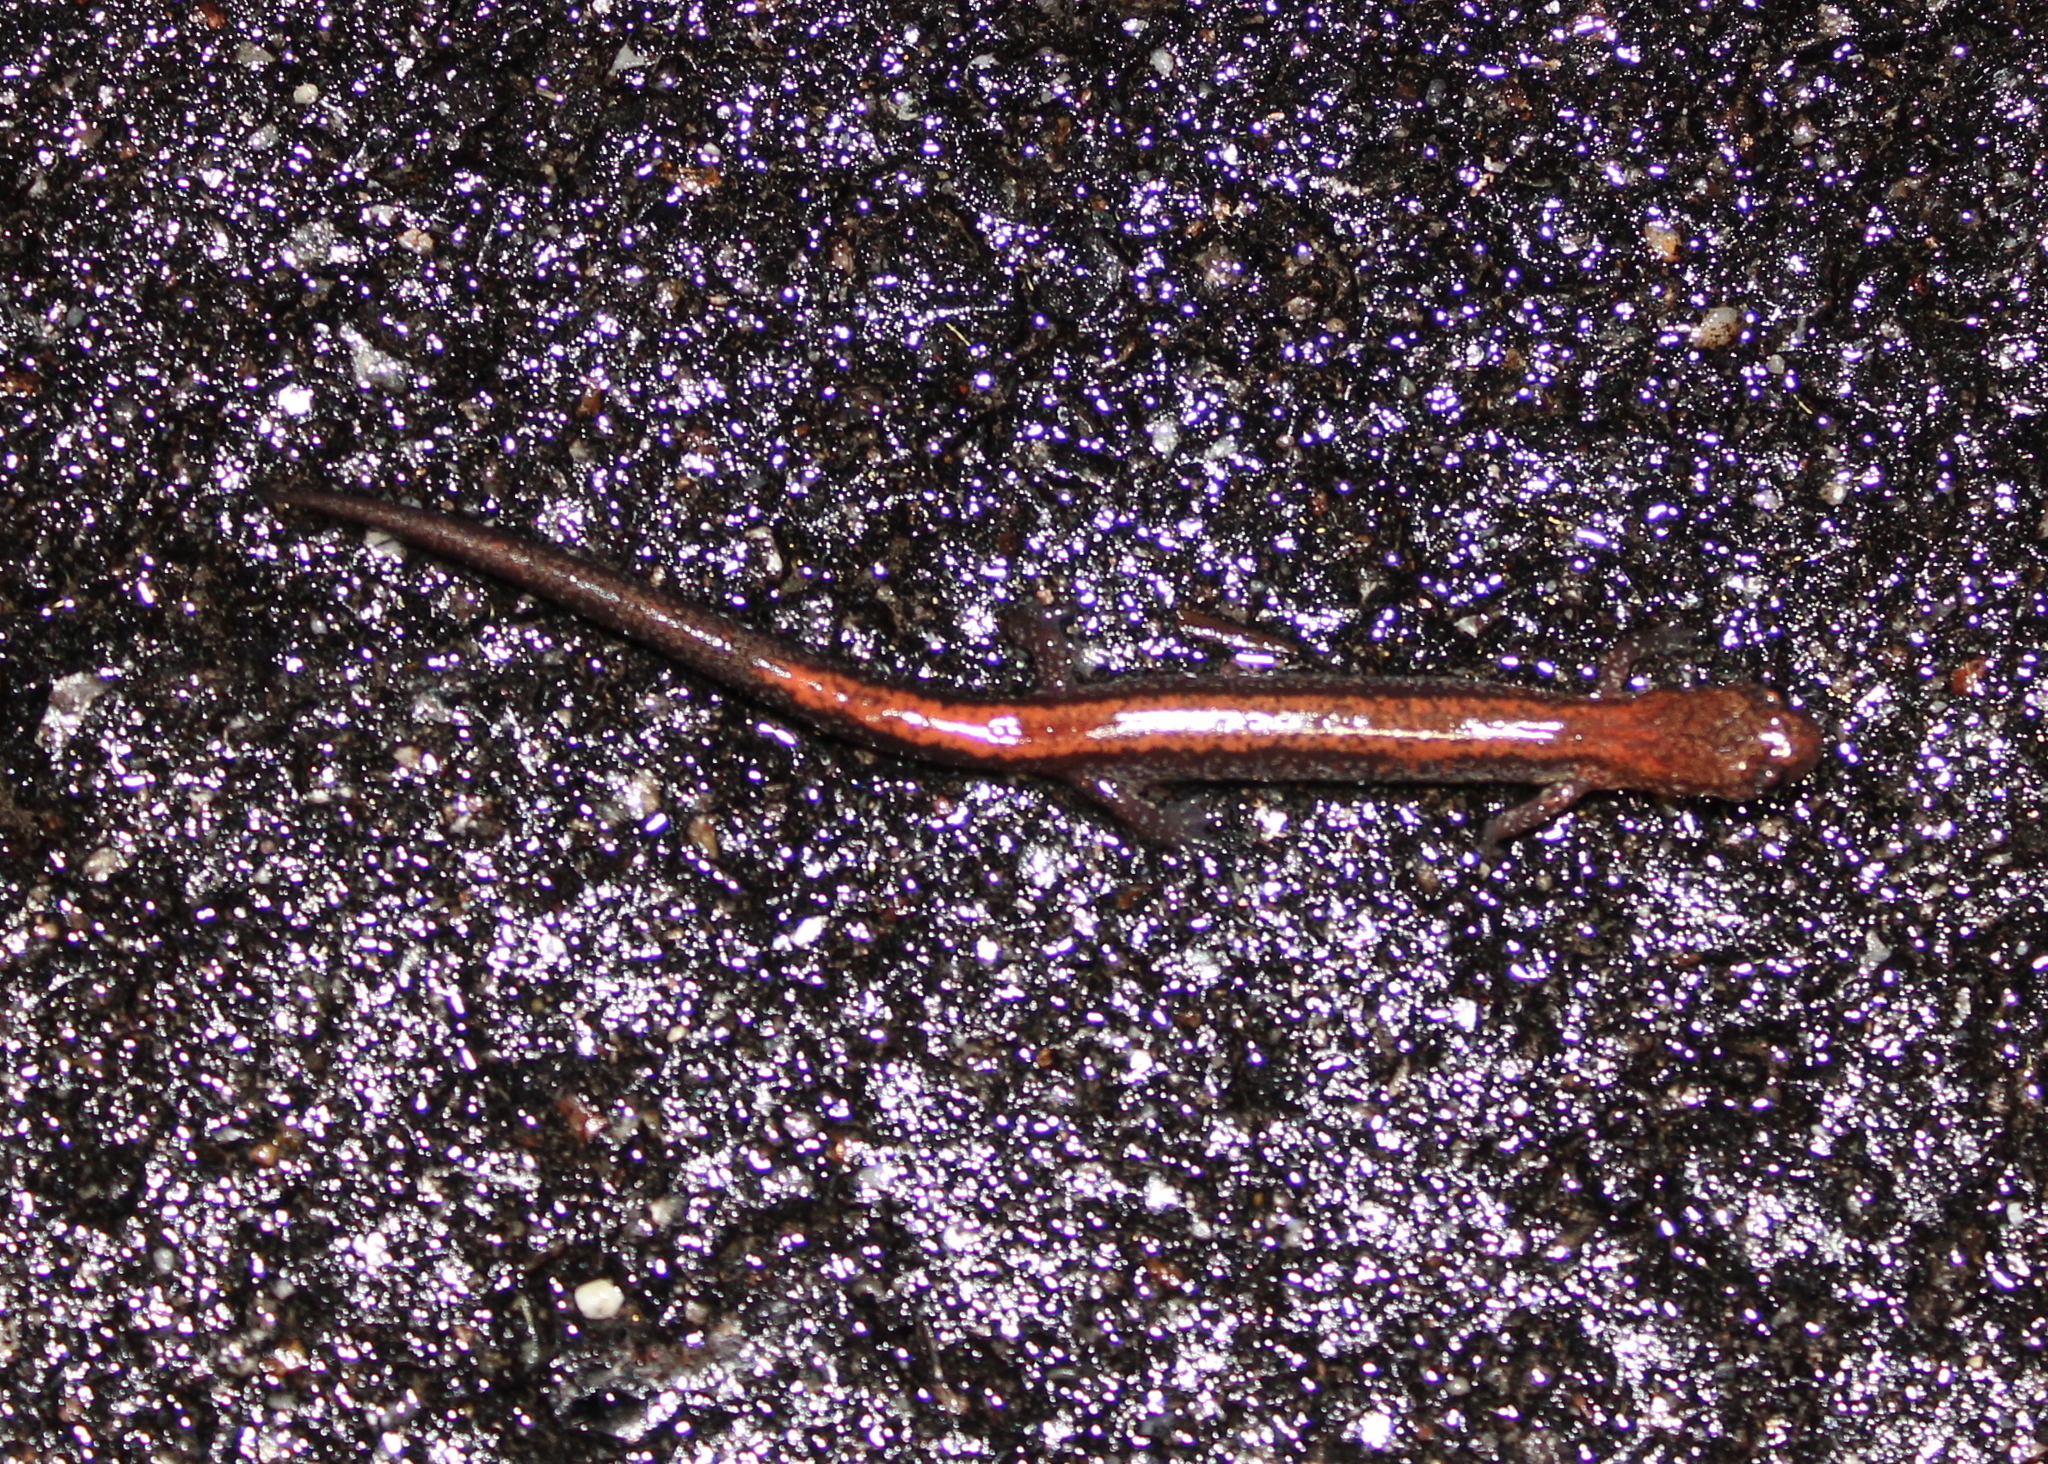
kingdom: Animalia
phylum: Chordata
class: Amphibia
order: Caudata
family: Plethodontidae
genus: Plethodon
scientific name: Plethodon cinereus
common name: Redback salamander
